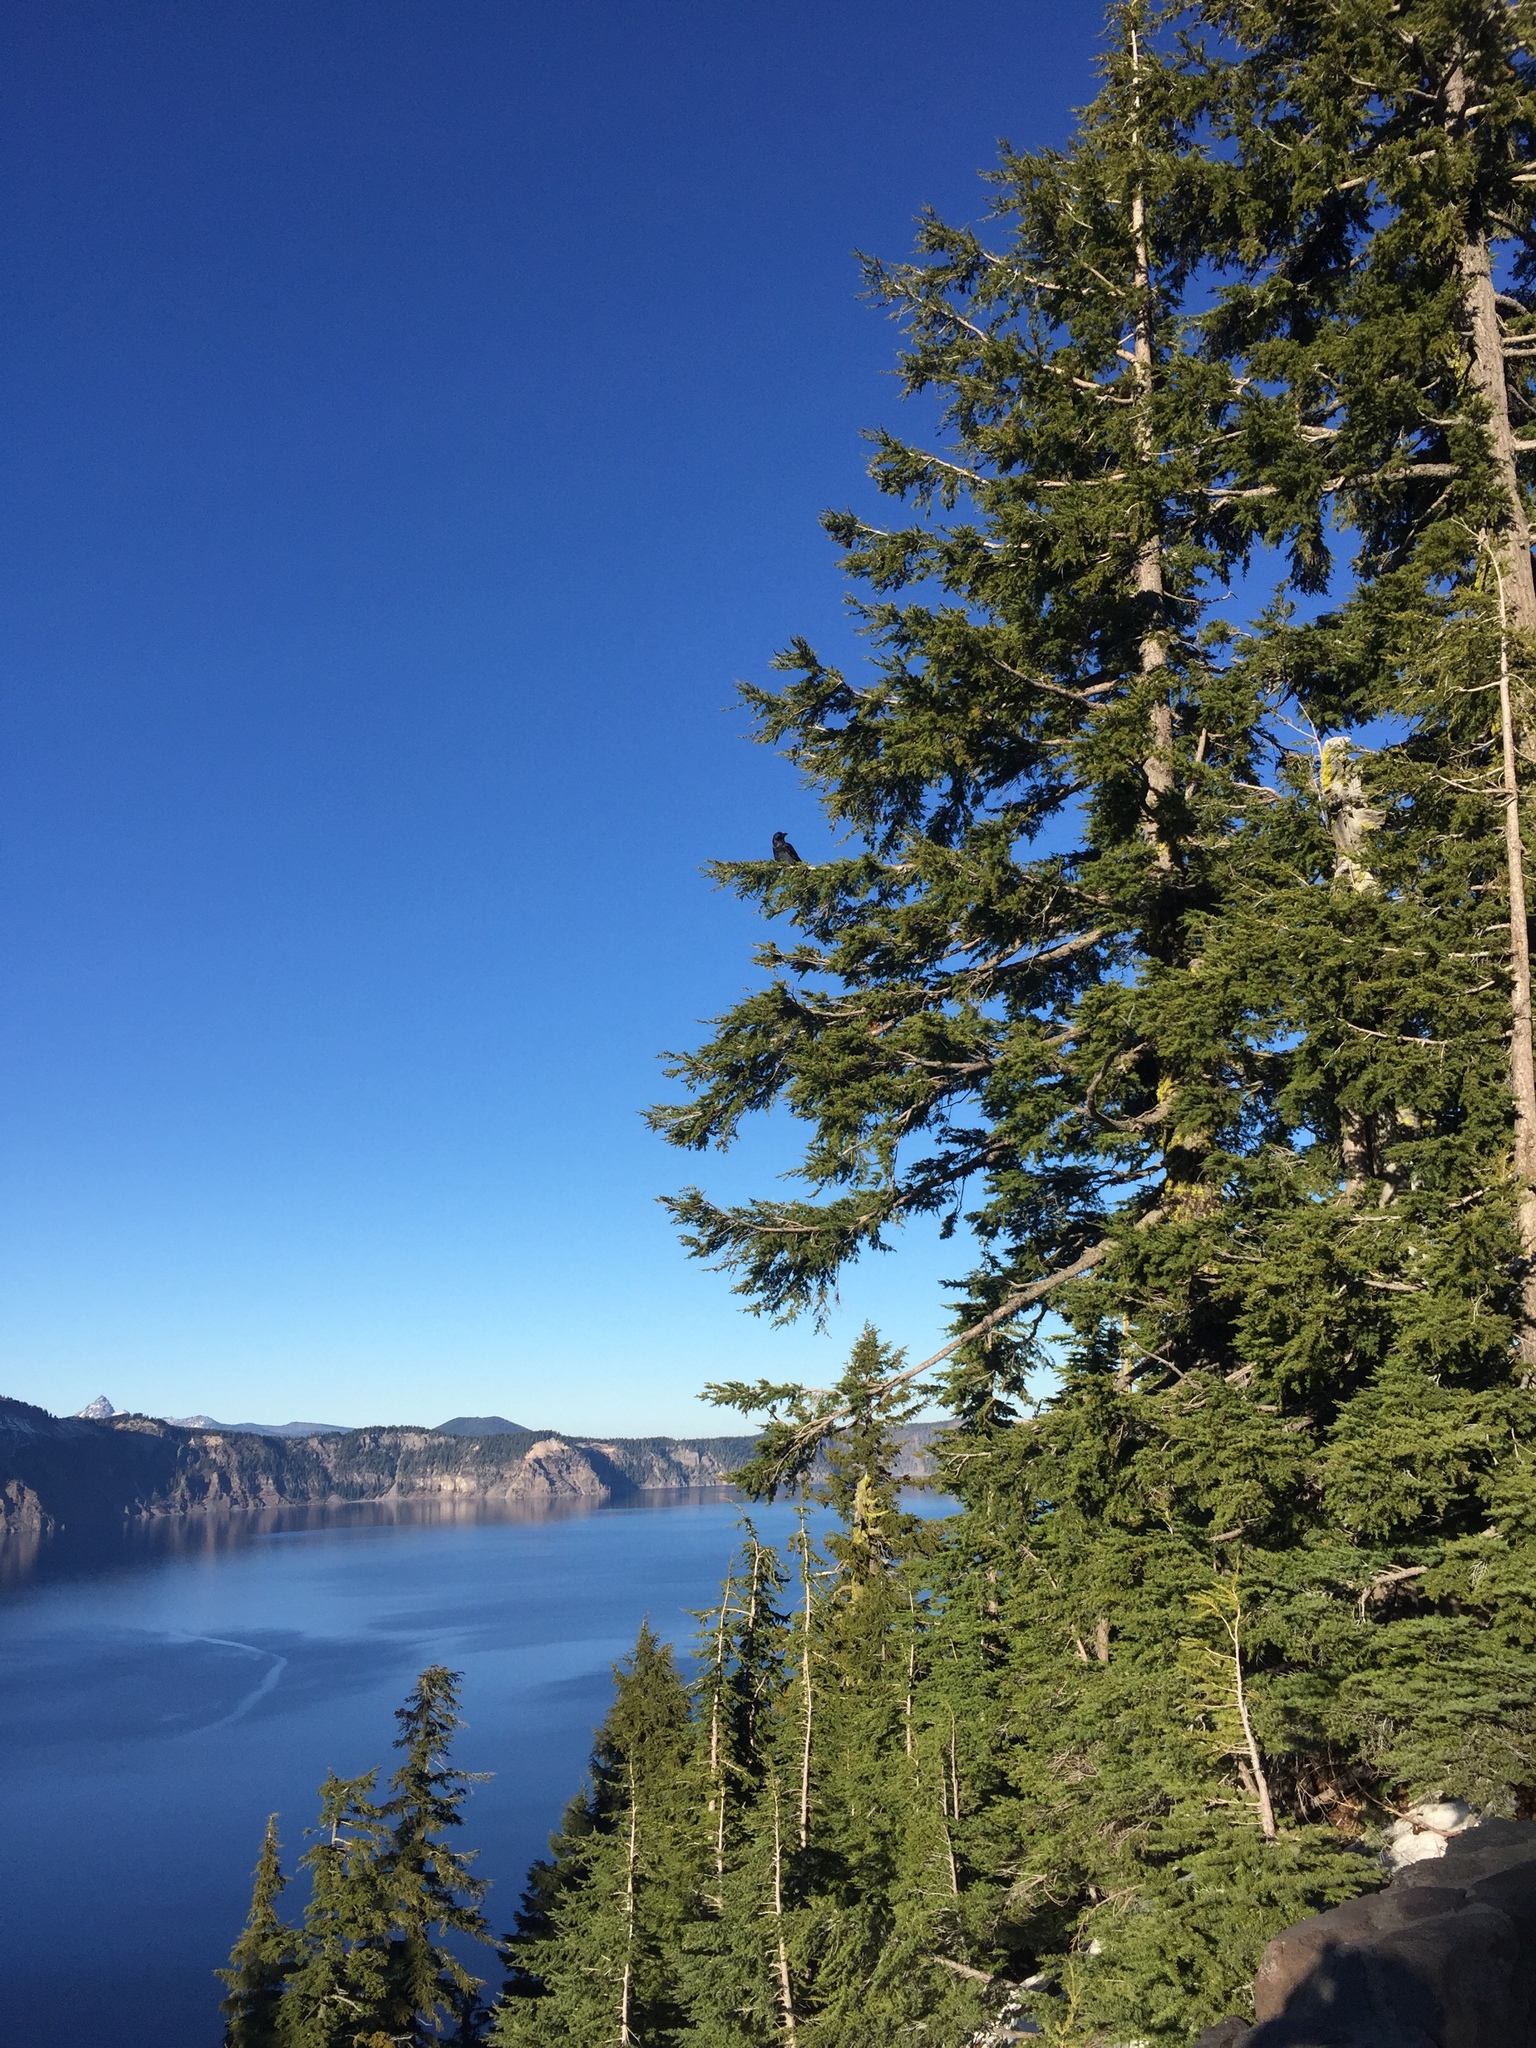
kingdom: Plantae
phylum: Tracheophyta
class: Pinopsida
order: Pinales
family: Pinaceae
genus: Tsuga
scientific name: Tsuga mertensiana
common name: Mountain hemlock
